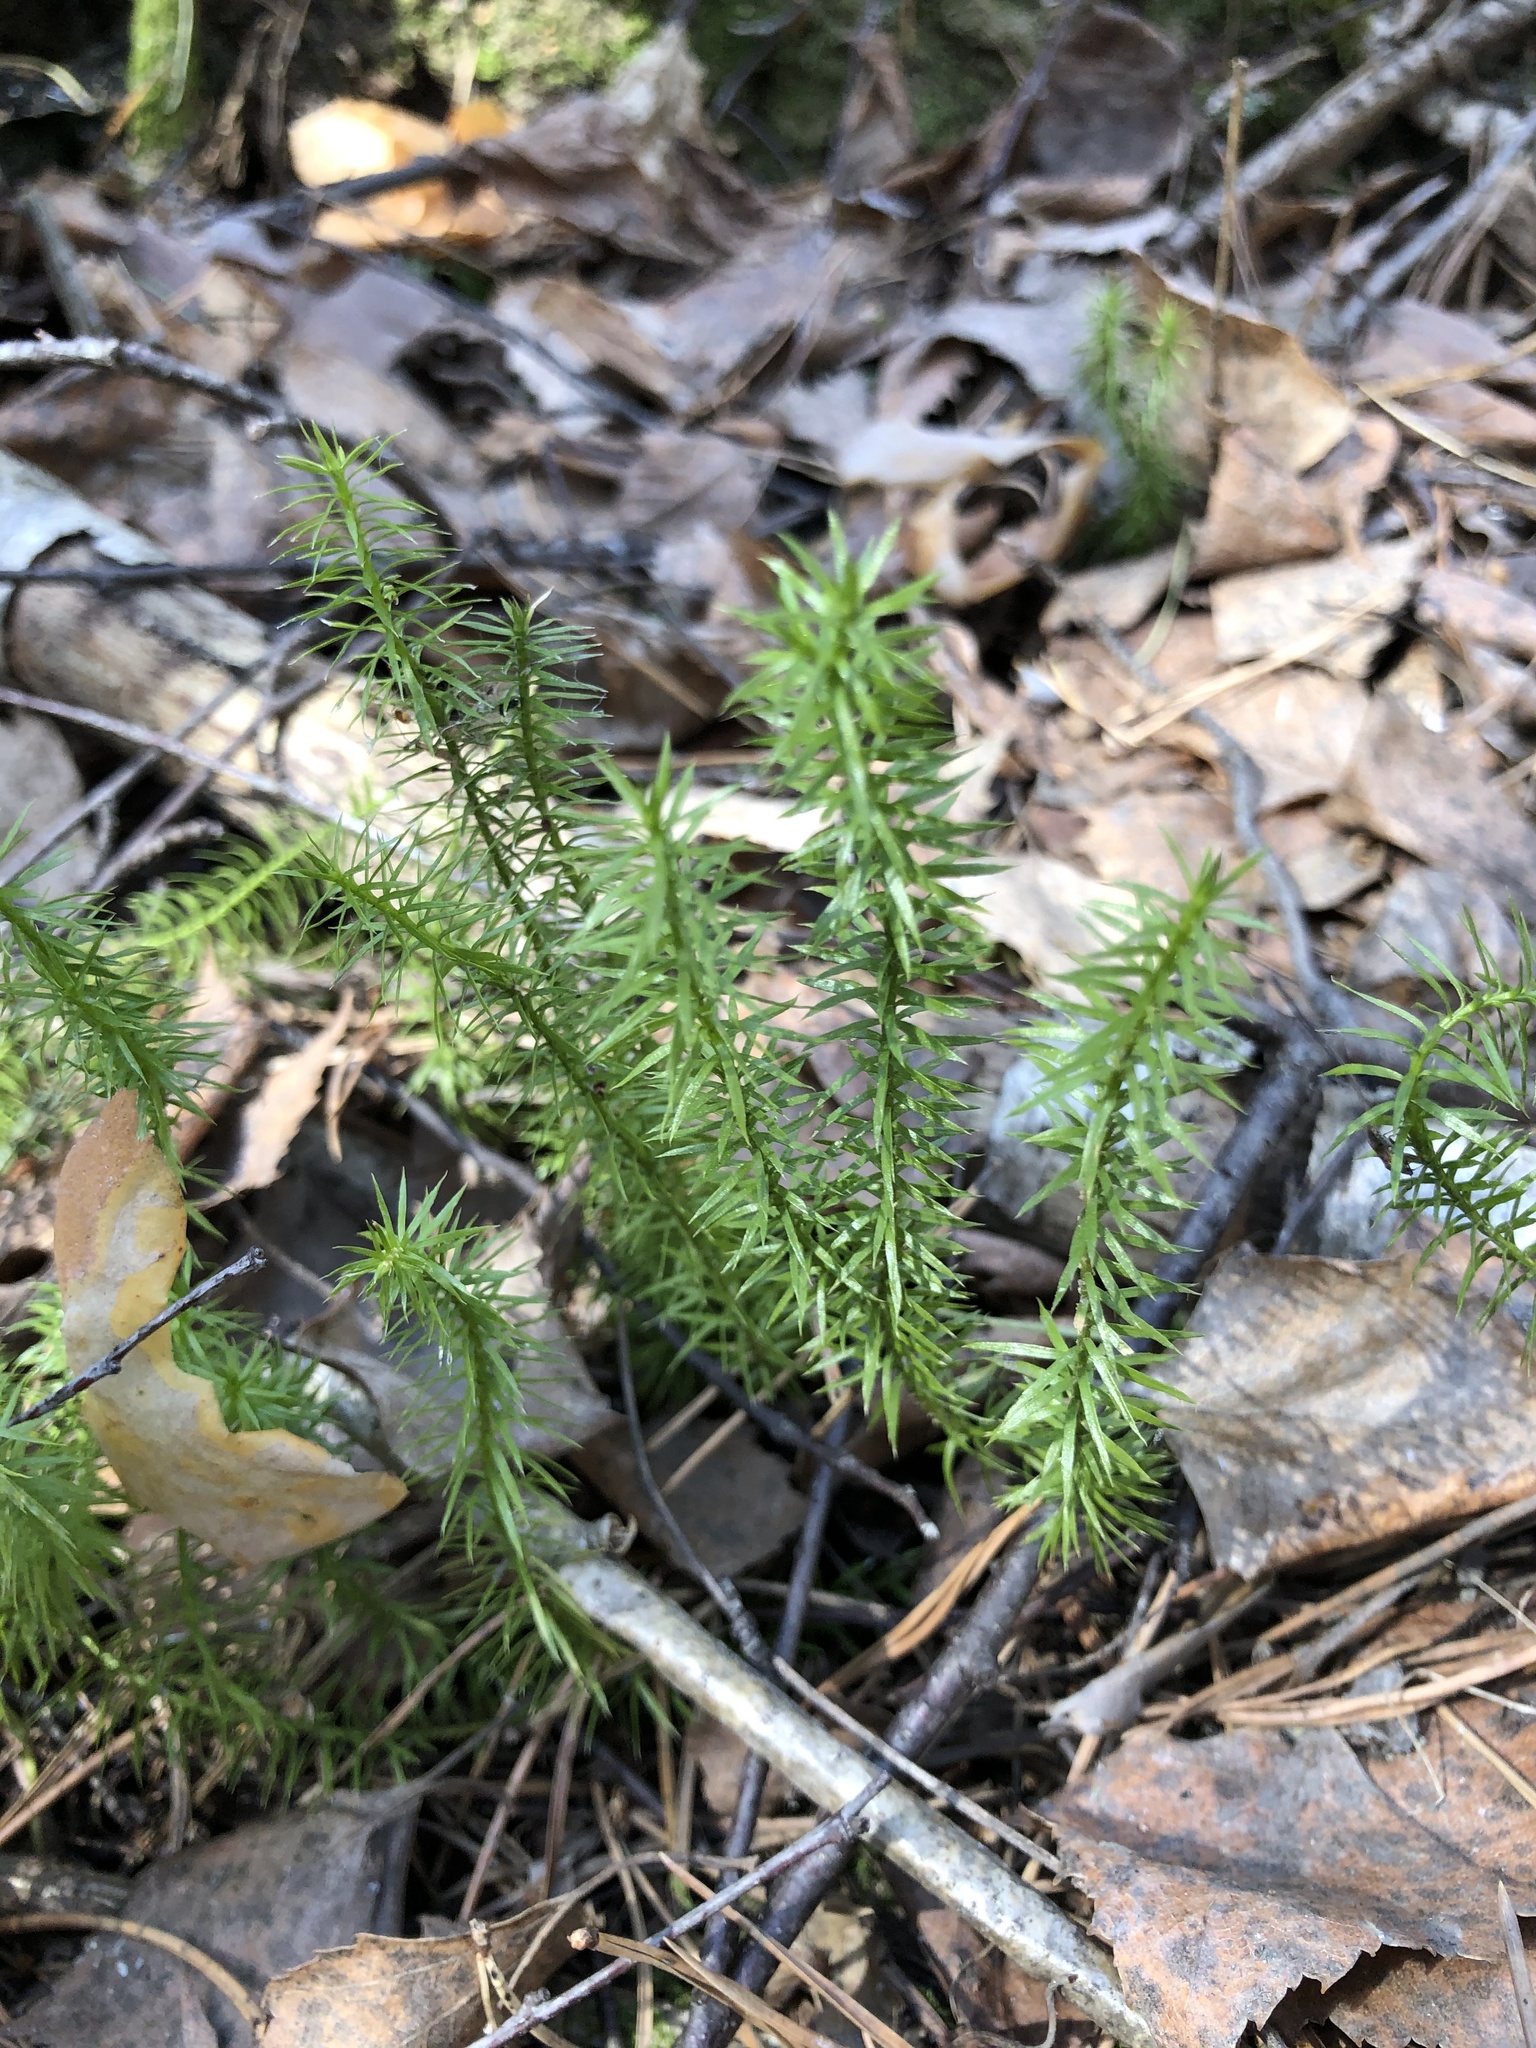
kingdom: Plantae
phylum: Tracheophyta
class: Lycopodiopsida
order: Lycopodiales
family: Lycopodiaceae
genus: Spinulum
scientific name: Spinulum annotinum
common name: Interrupted club-moss
